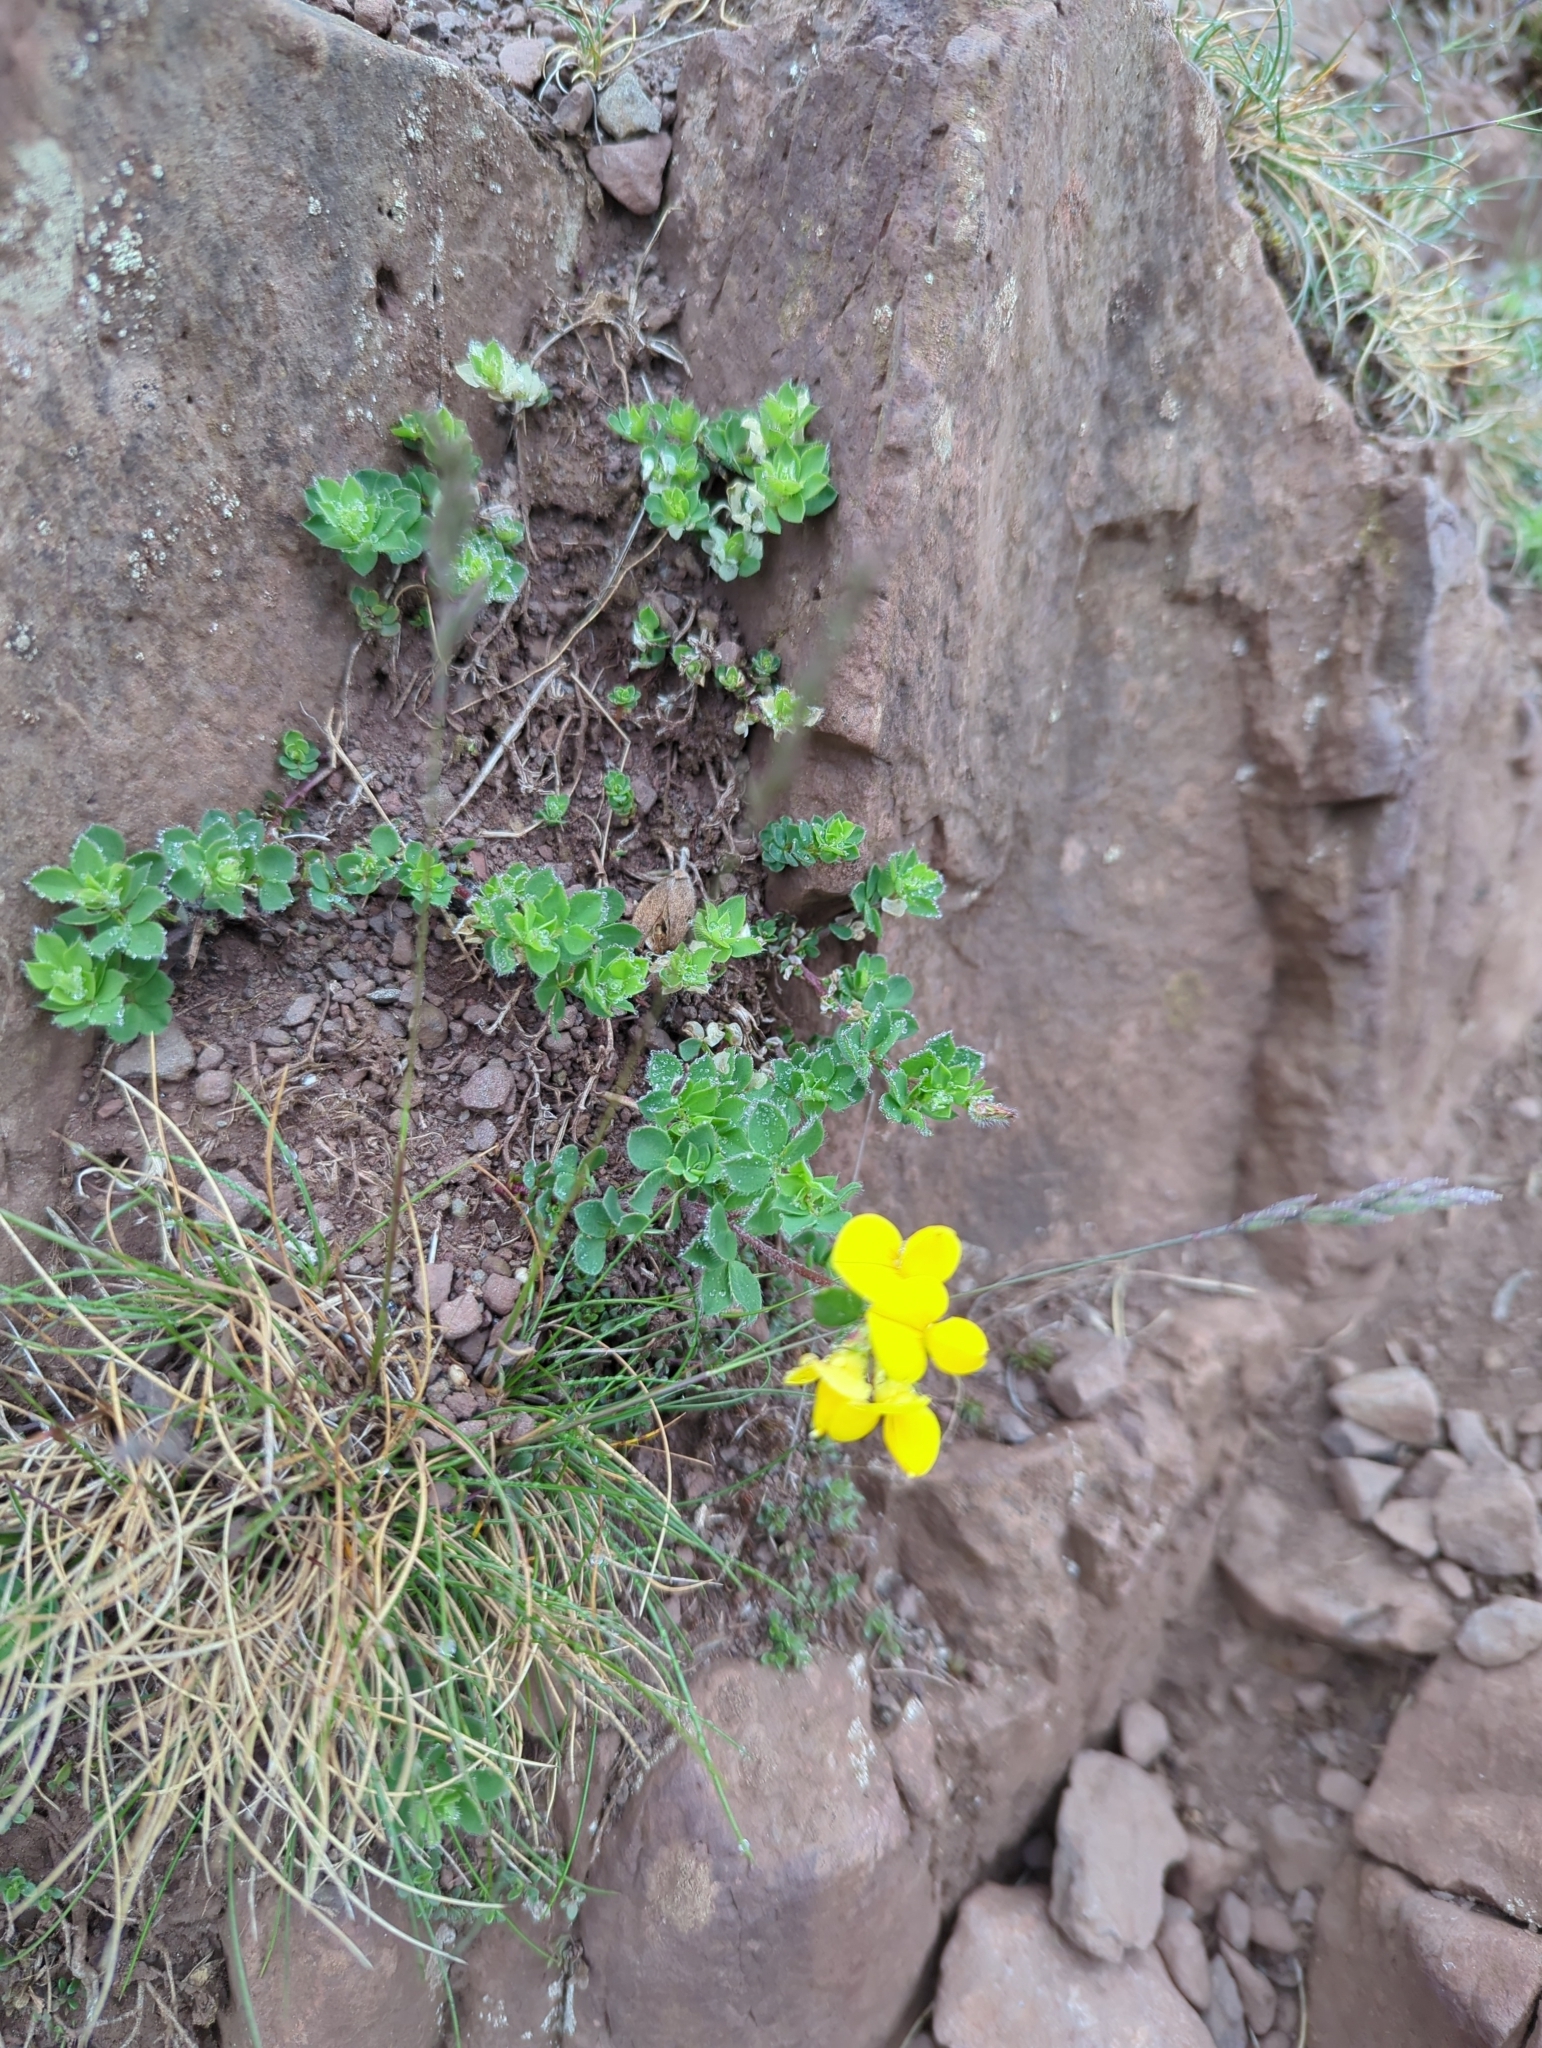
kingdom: Plantae
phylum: Tracheophyta
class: Magnoliopsida
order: Fabales
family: Fabaceae
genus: Lotus
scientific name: Lotus corniculatus
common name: Common bird's-foot-trefoil
